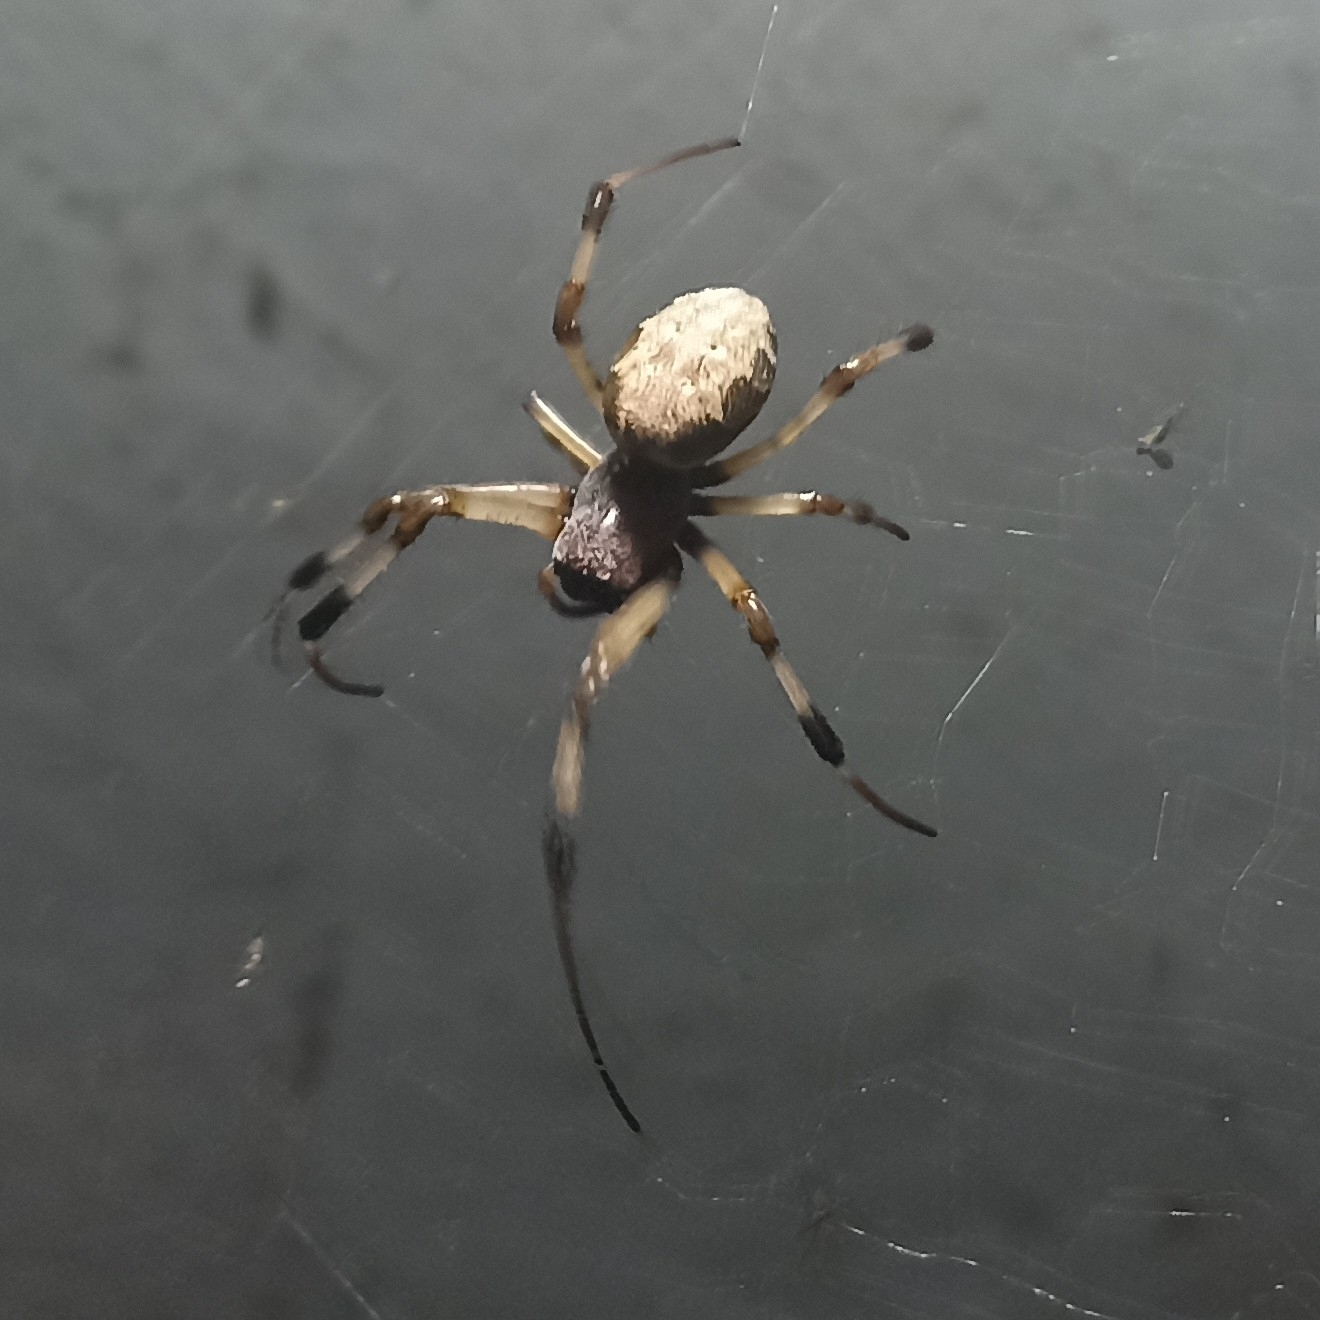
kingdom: Animalia
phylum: Arthropoda
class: Arachnida
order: Araneae
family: Araneidae
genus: Nephilengys
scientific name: Nephilengys malabarensis
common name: Asian hermit spider
